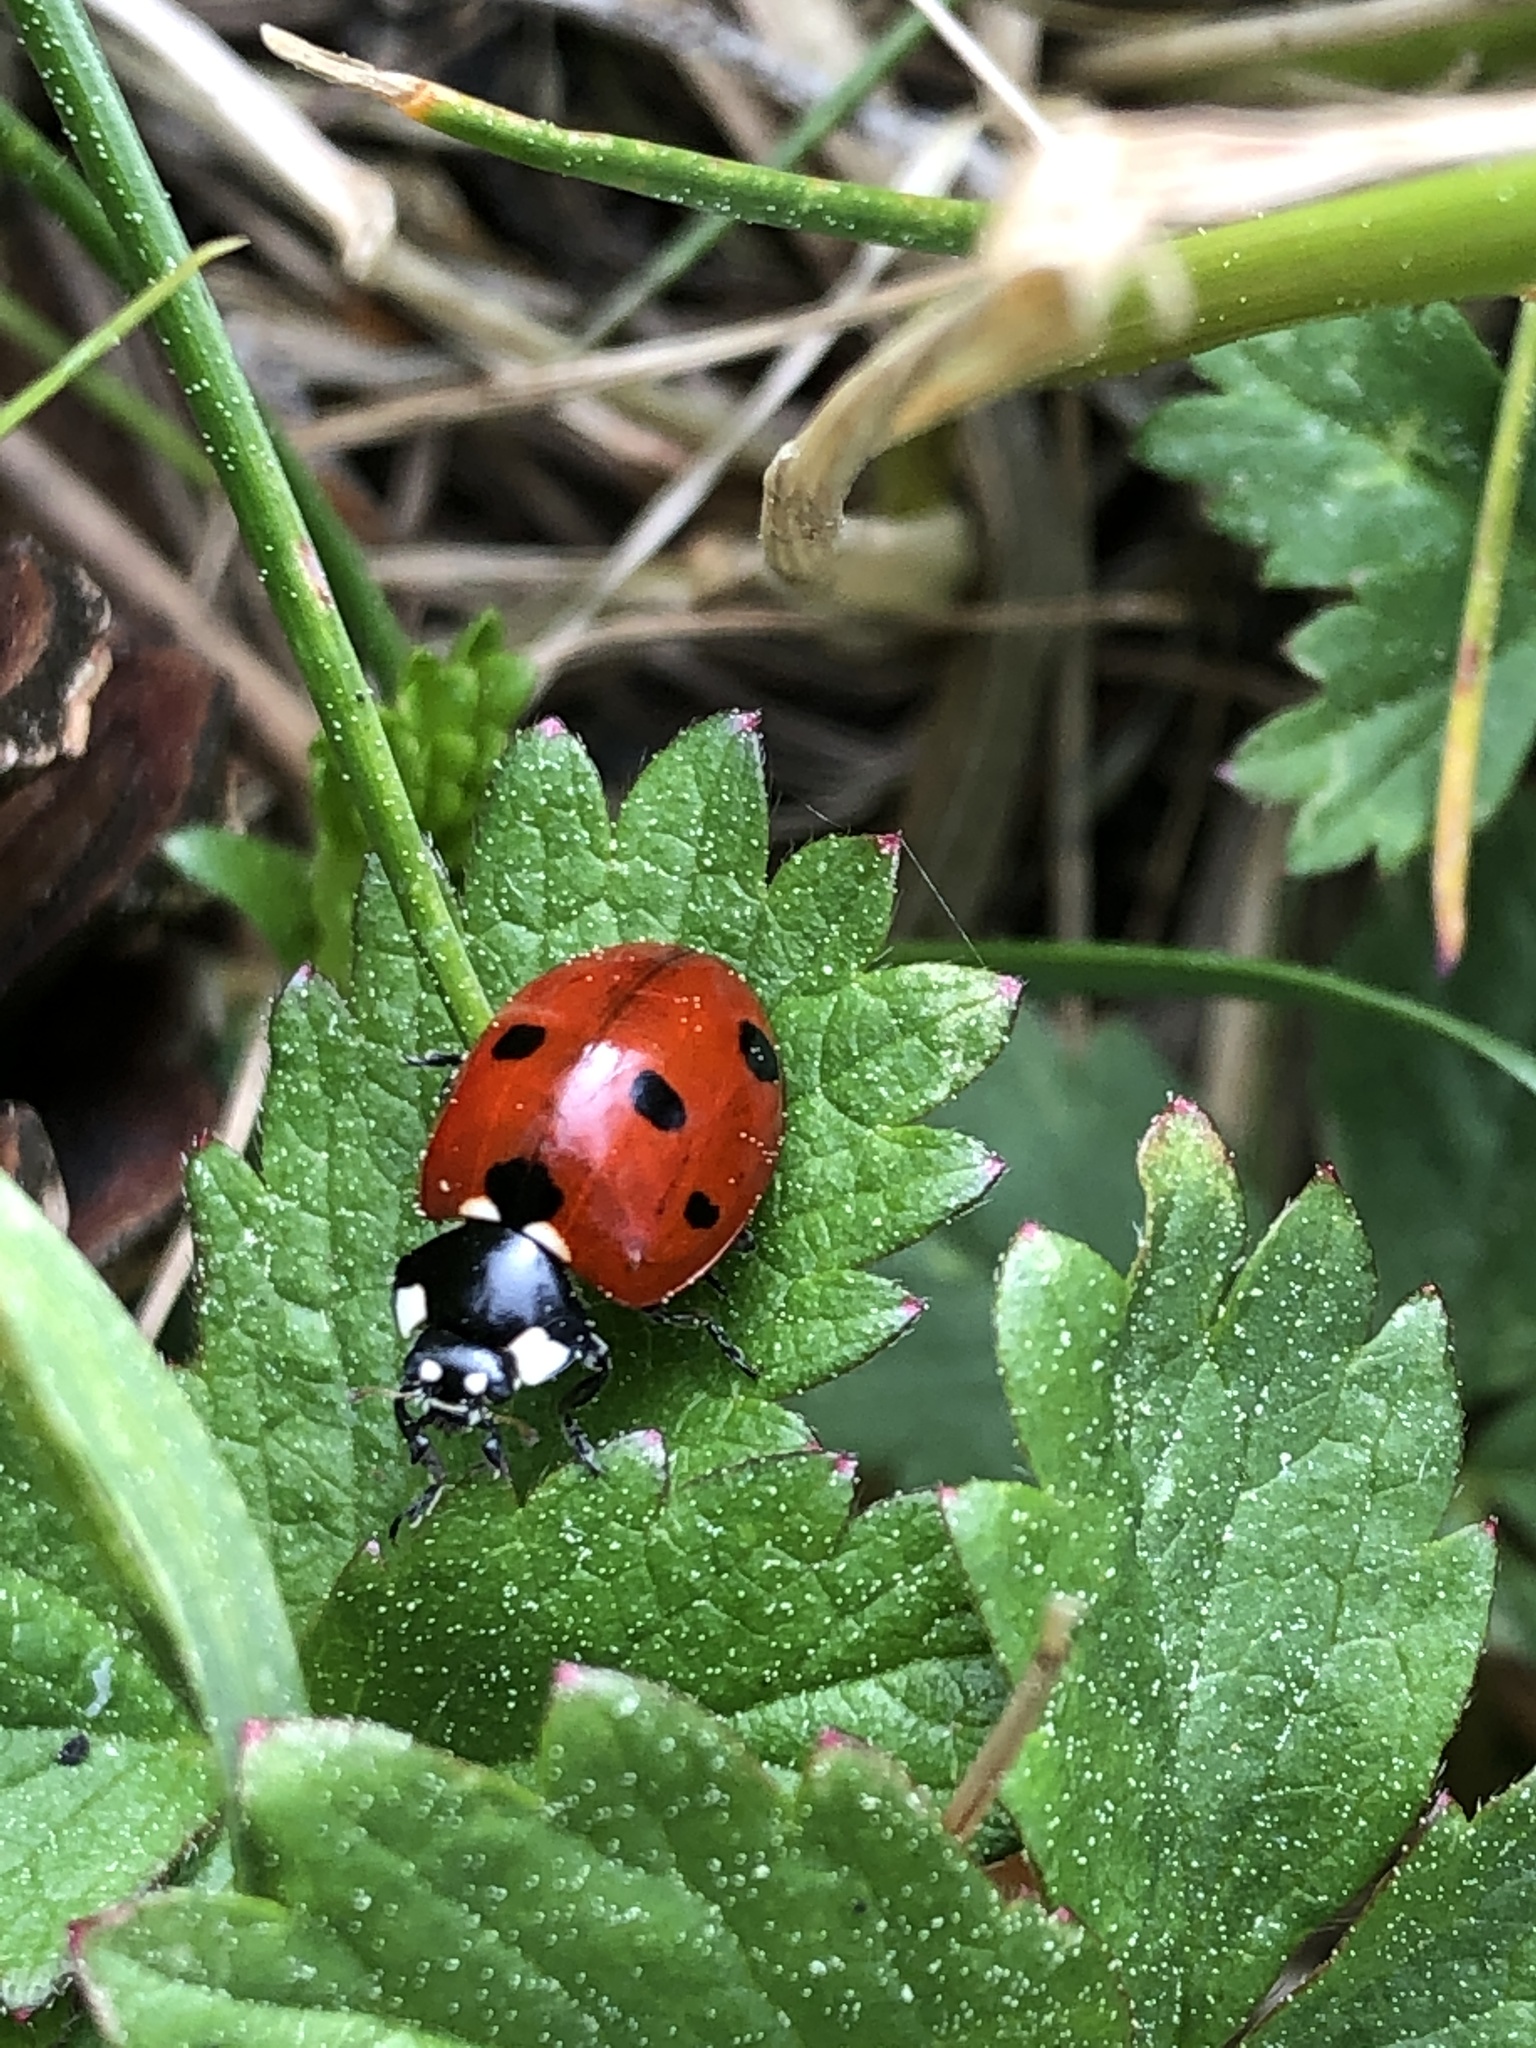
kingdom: Animalia
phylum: Arthropoda
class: Insecta
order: Coleoptera
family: Coccinellidae
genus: Coccinella
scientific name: Coccinella septempunctata
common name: Sevenspotted lady beetle
